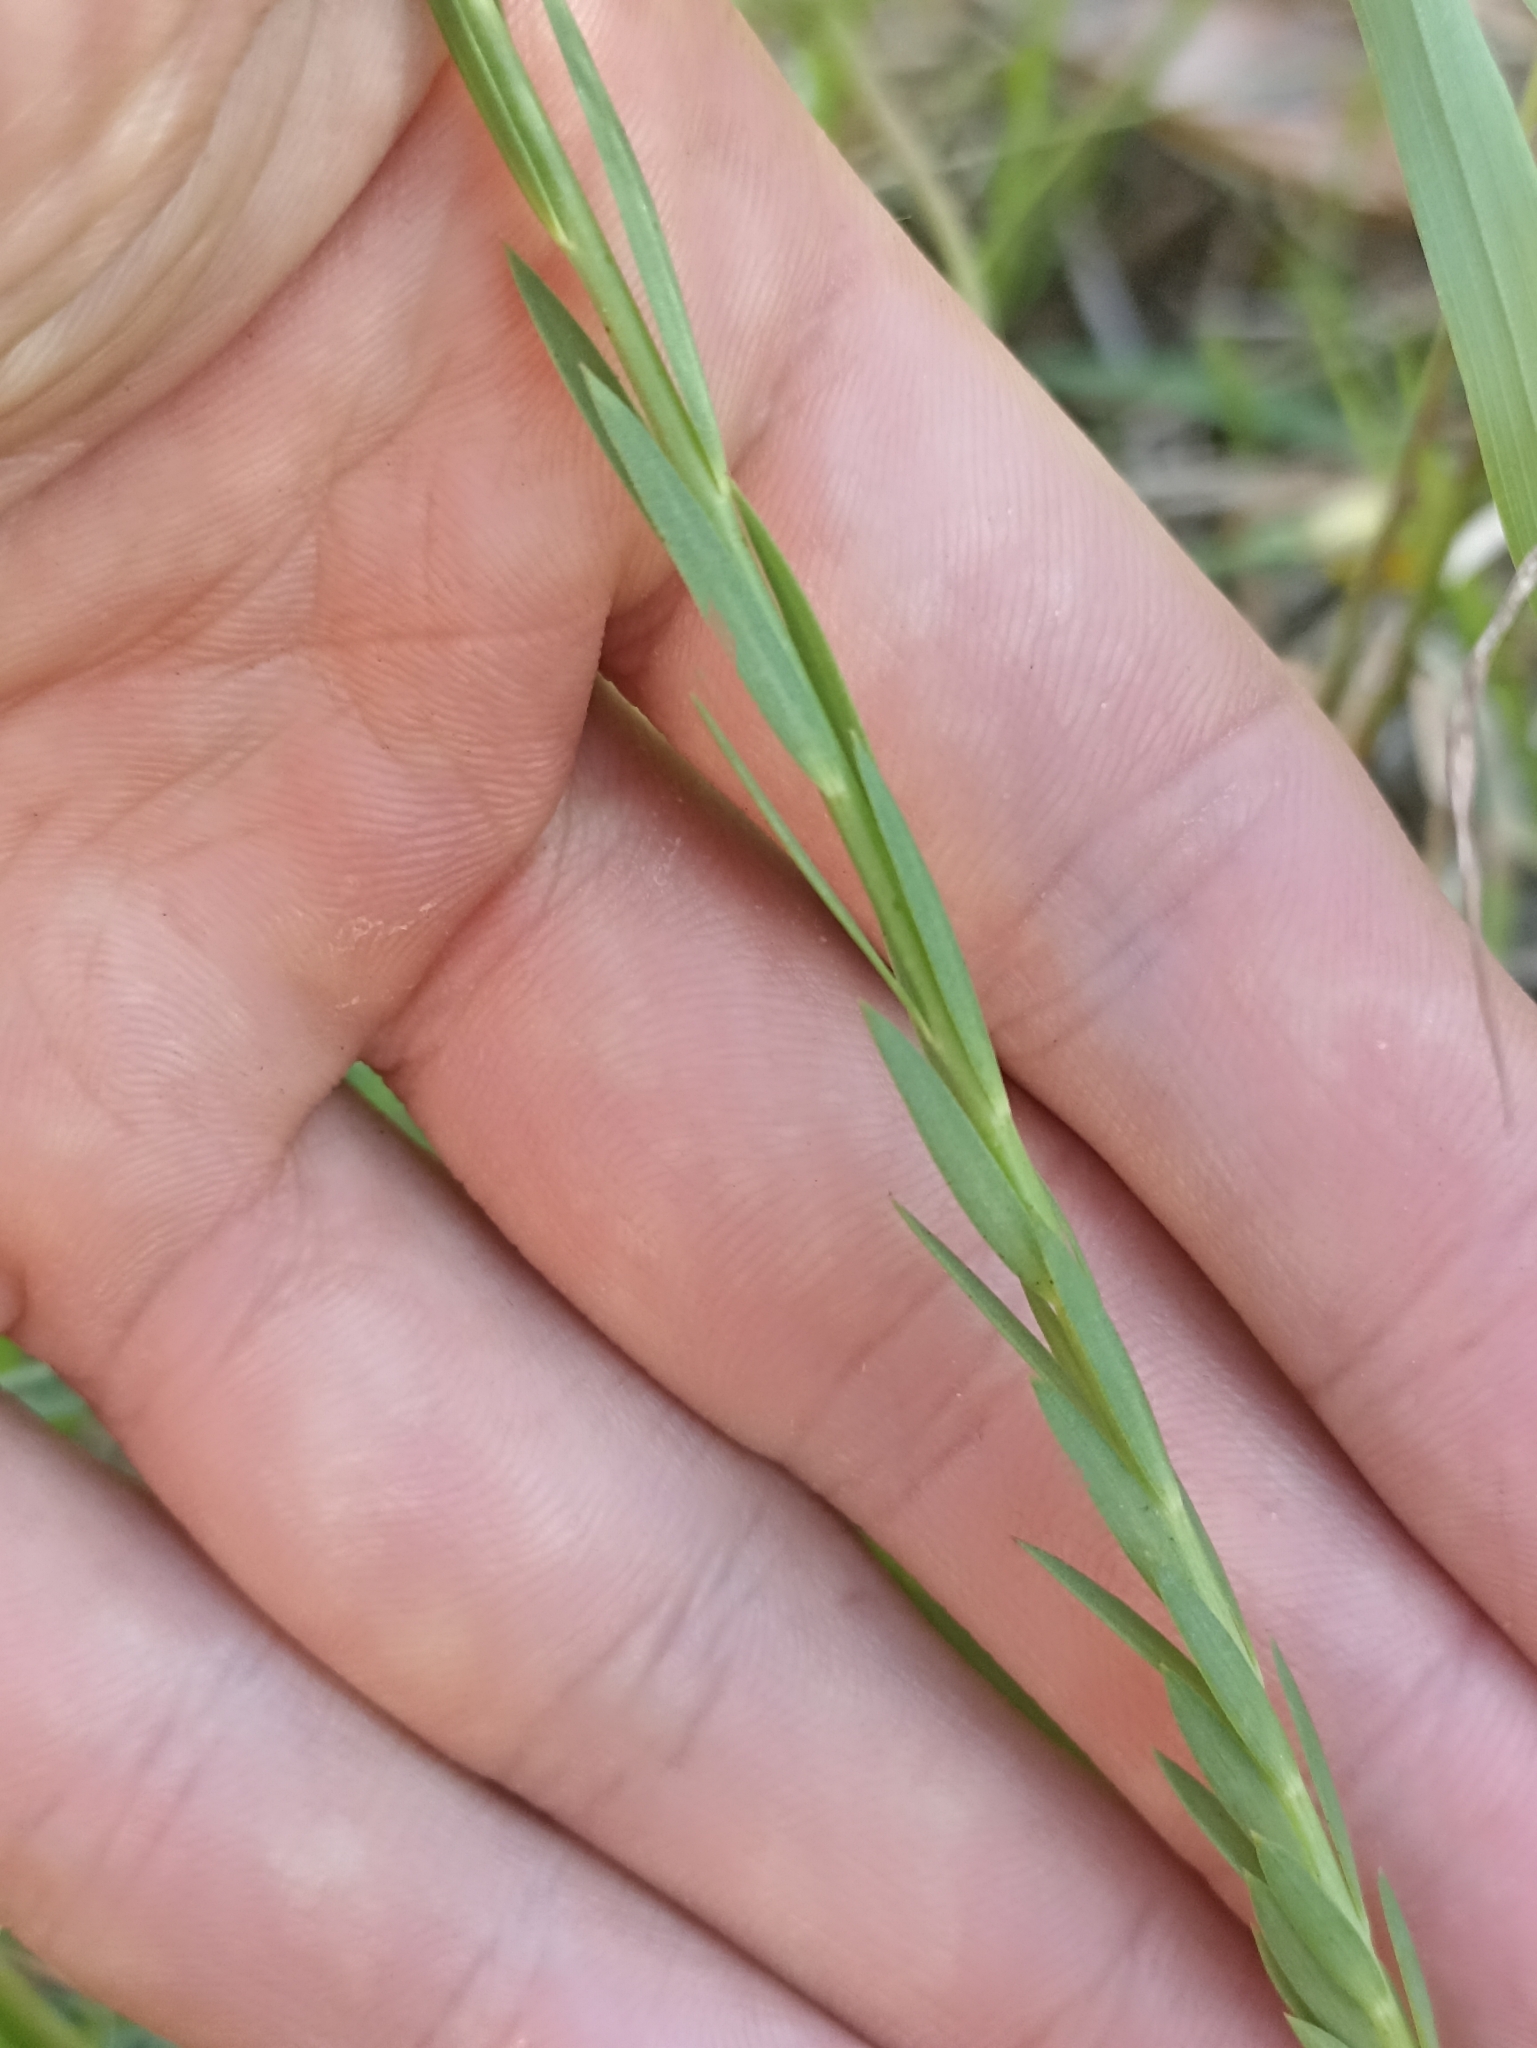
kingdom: Plantae
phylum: Tracheophyta
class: Magnoliopsida
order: Malpighiales
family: Linaceae
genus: Linum
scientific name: Linum bienne
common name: Pale flax
